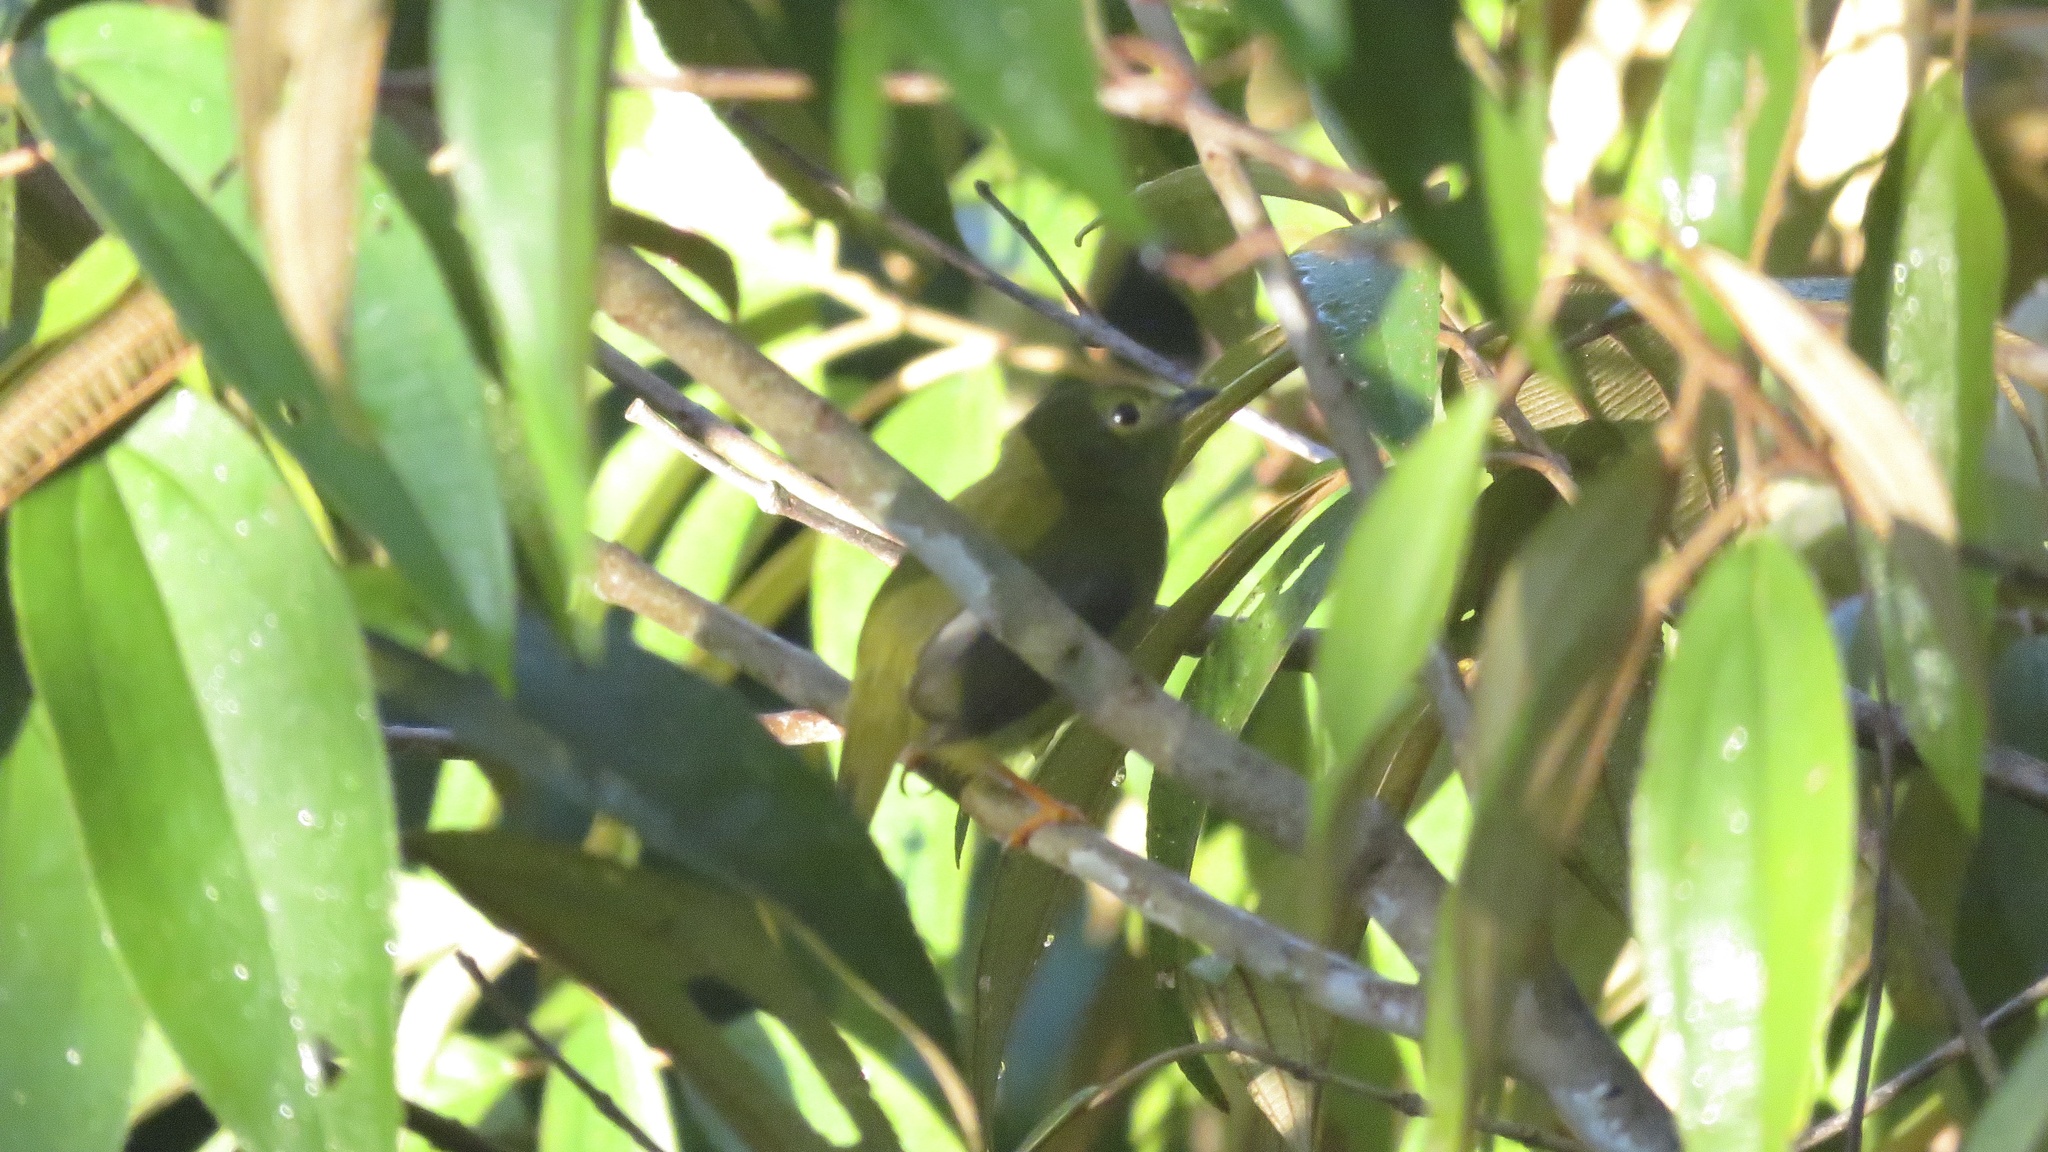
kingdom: Animalia
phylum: Chordata
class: Aves
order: Passeriformes
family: Pipridae
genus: Manacus
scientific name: Manacus aurantiacus
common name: Orange-collared manakin
